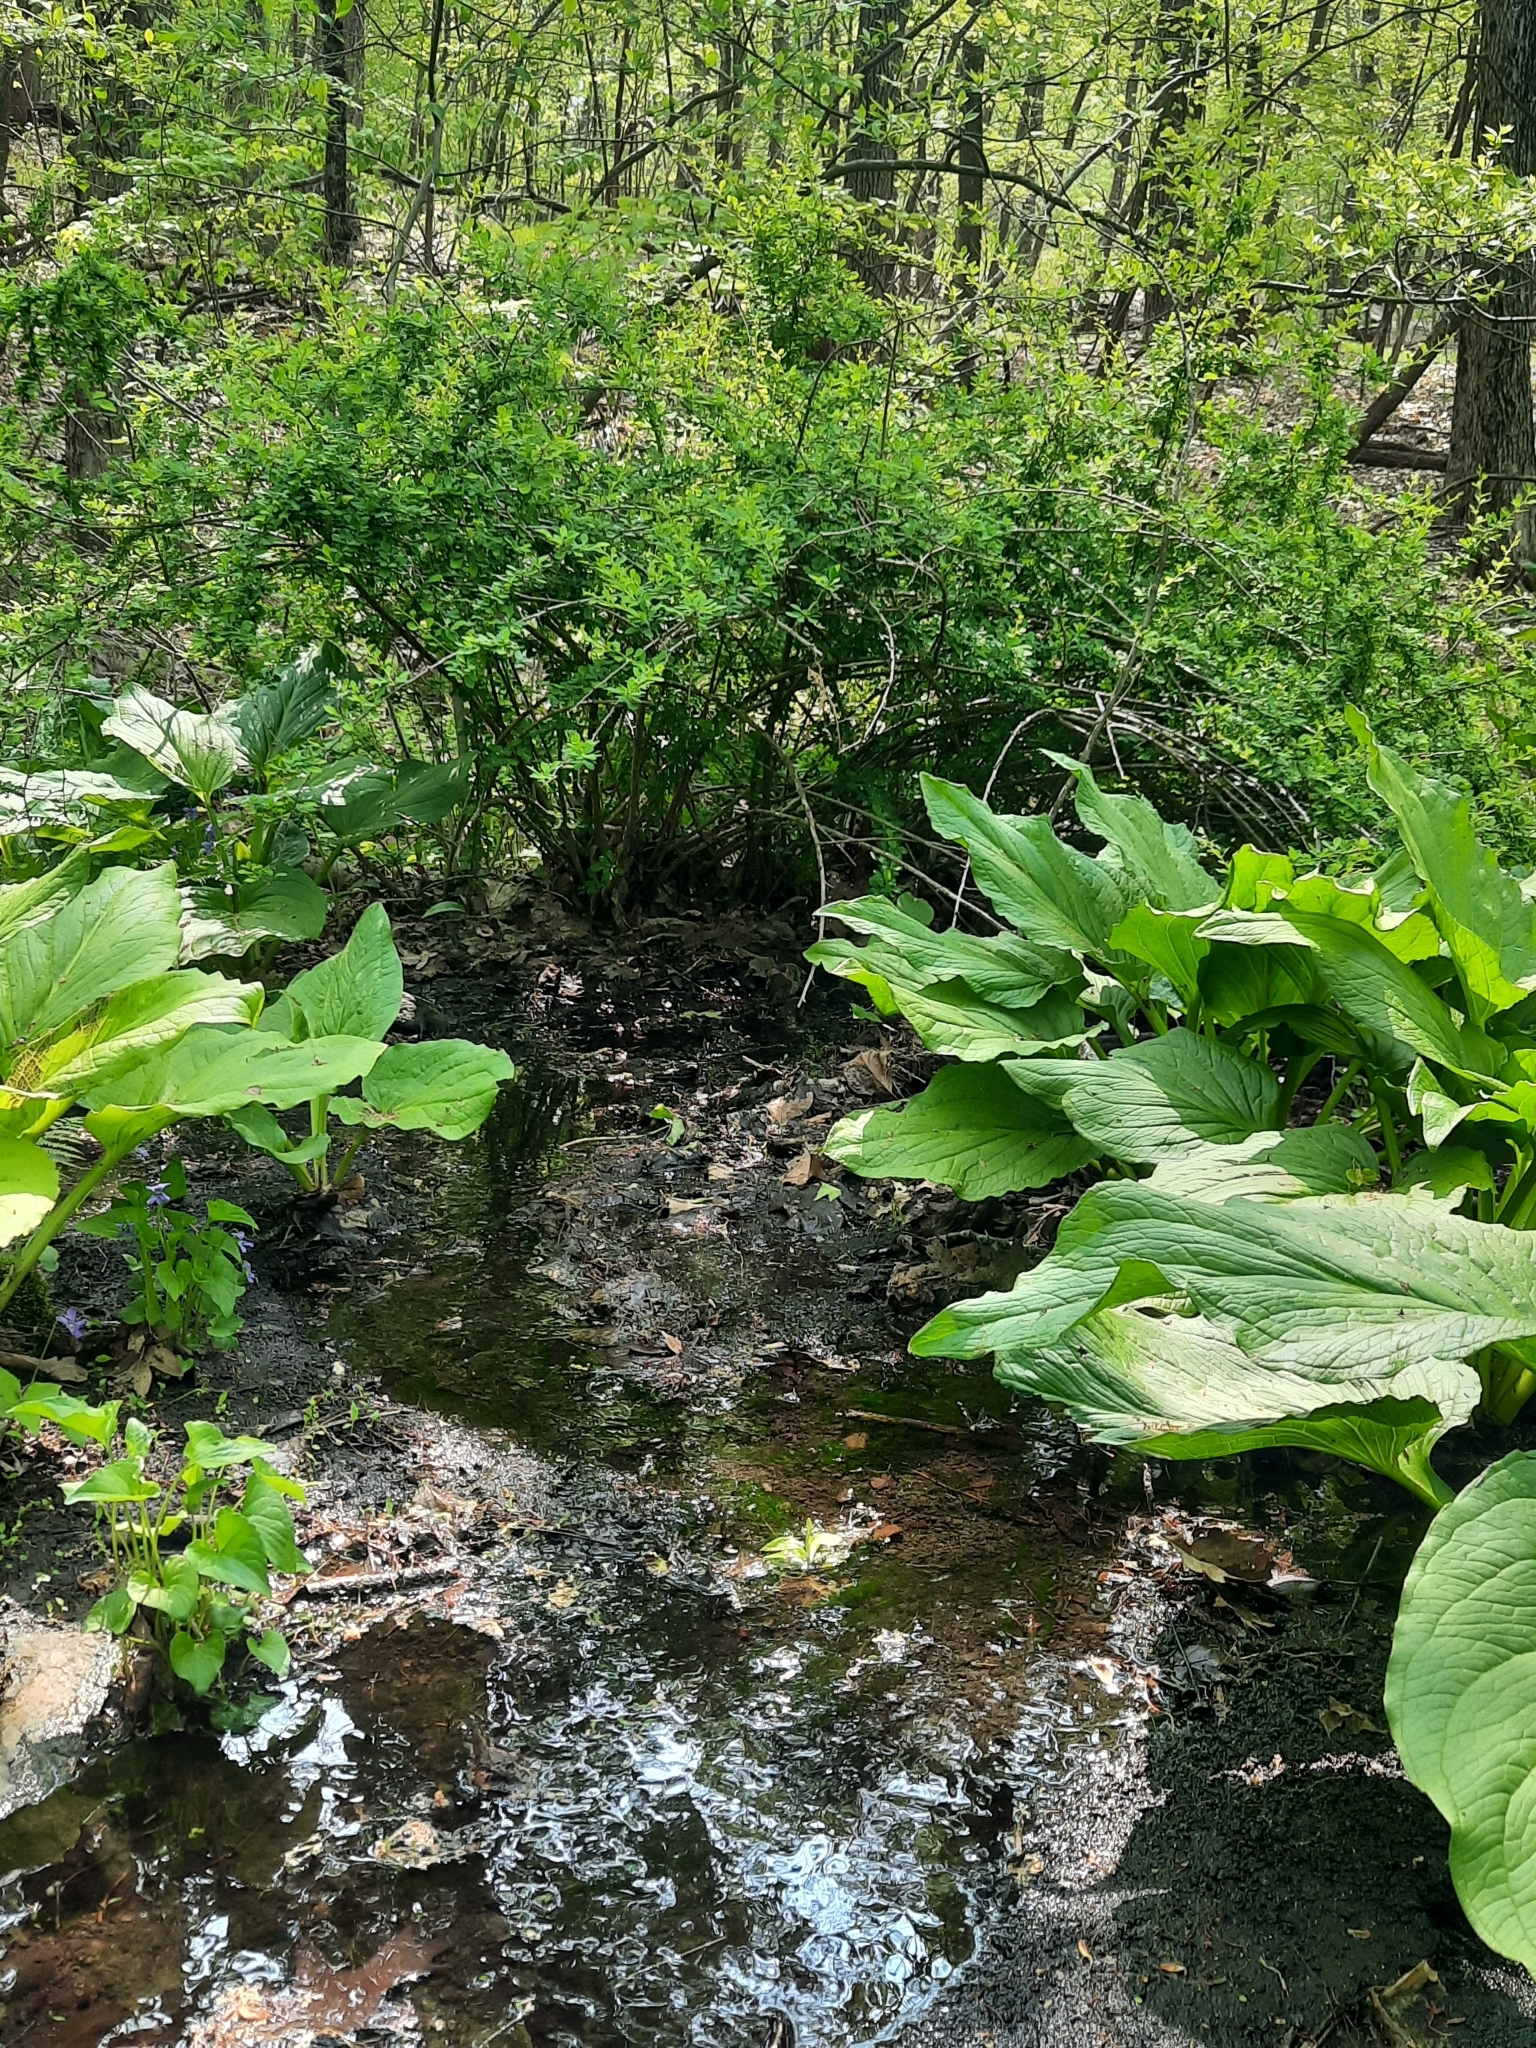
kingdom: Plantae
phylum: Tracheophyta
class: Magnoliopsida
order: Ranunculales
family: Berberidaceae
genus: Berberis
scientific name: Berberis thunbergii
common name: Japanese barberry
